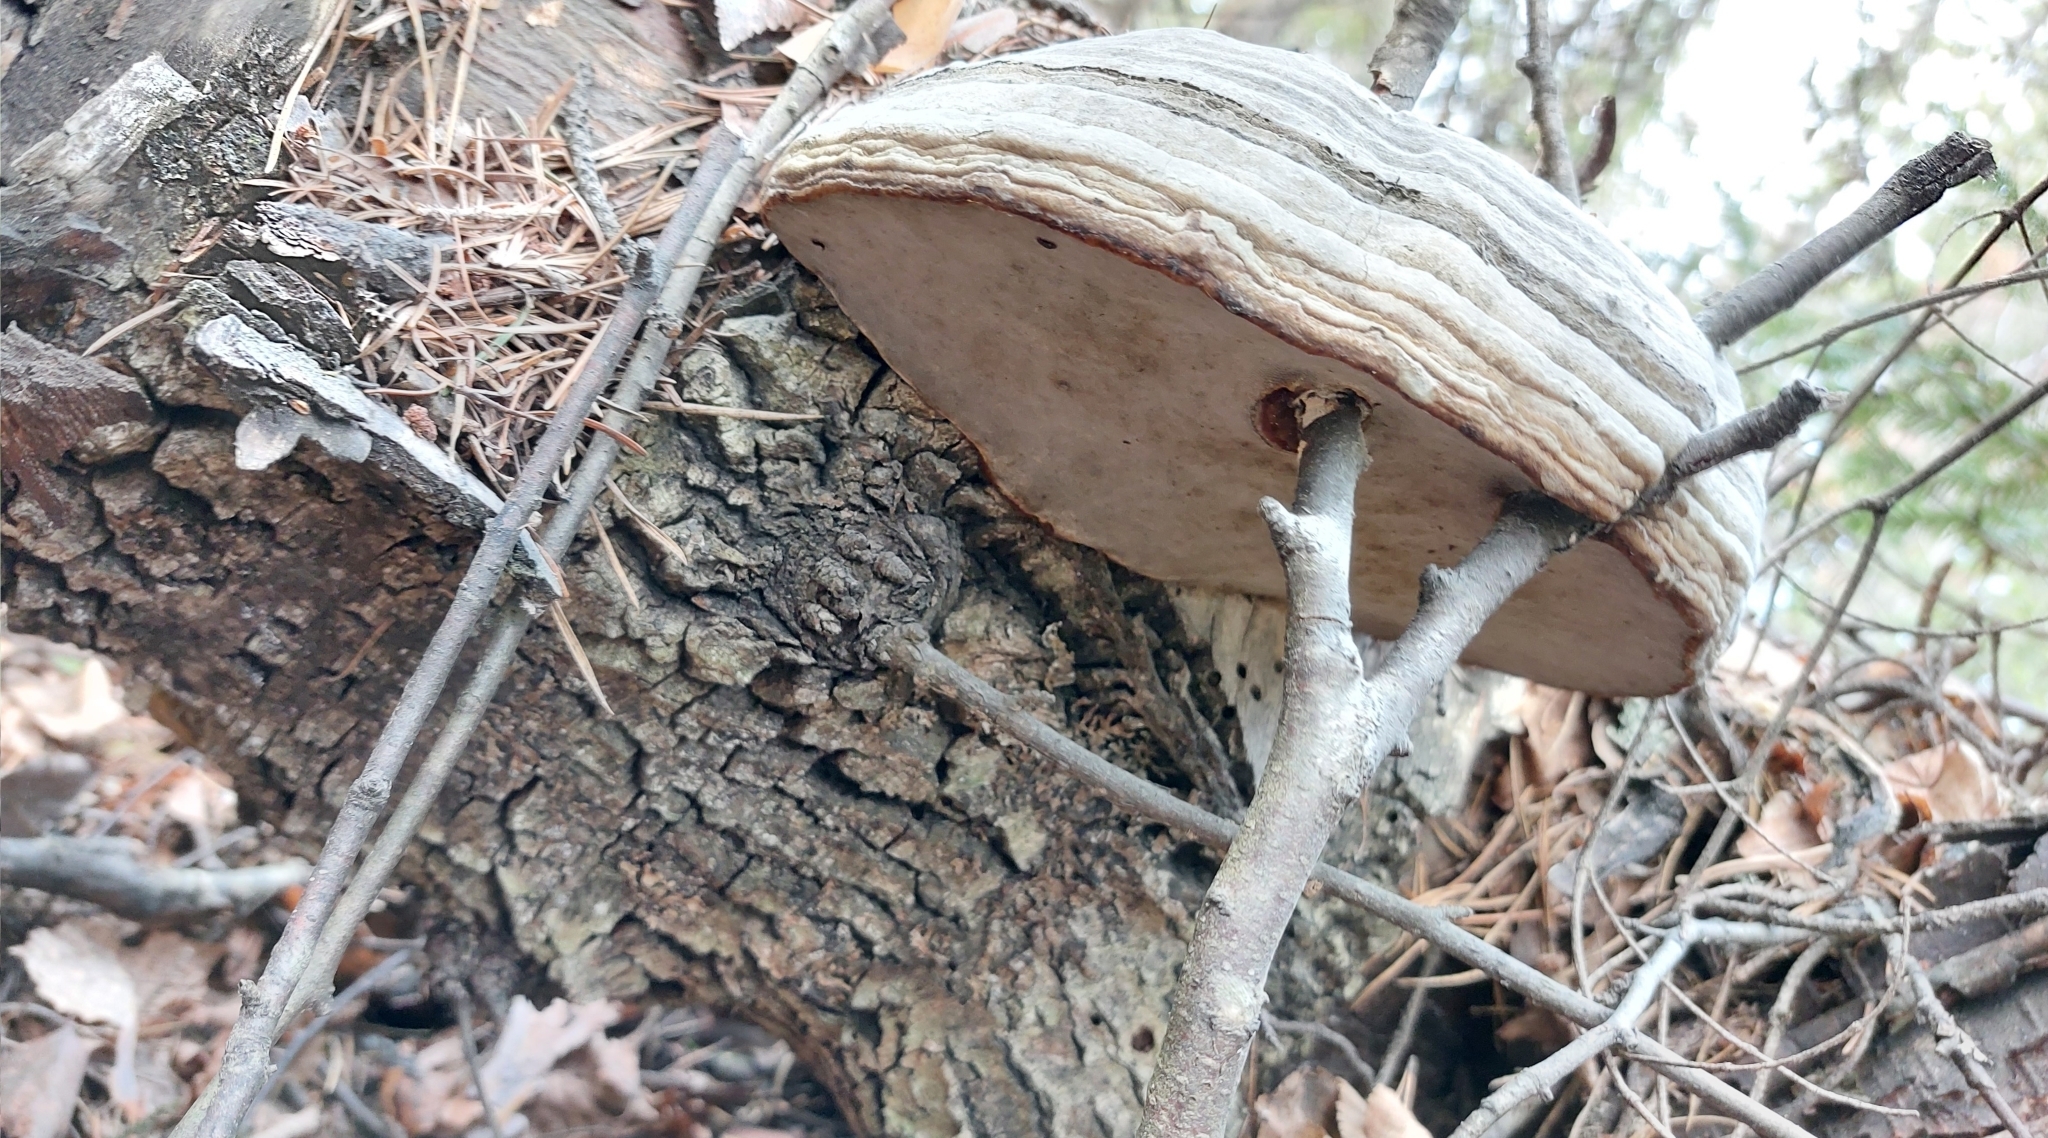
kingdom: Fungi
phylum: Basidiomycota
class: Agaricomycetes
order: Polyporales
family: Polyporaceae
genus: Fomes
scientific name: Fomes fomentarius
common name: Hoof fungus
